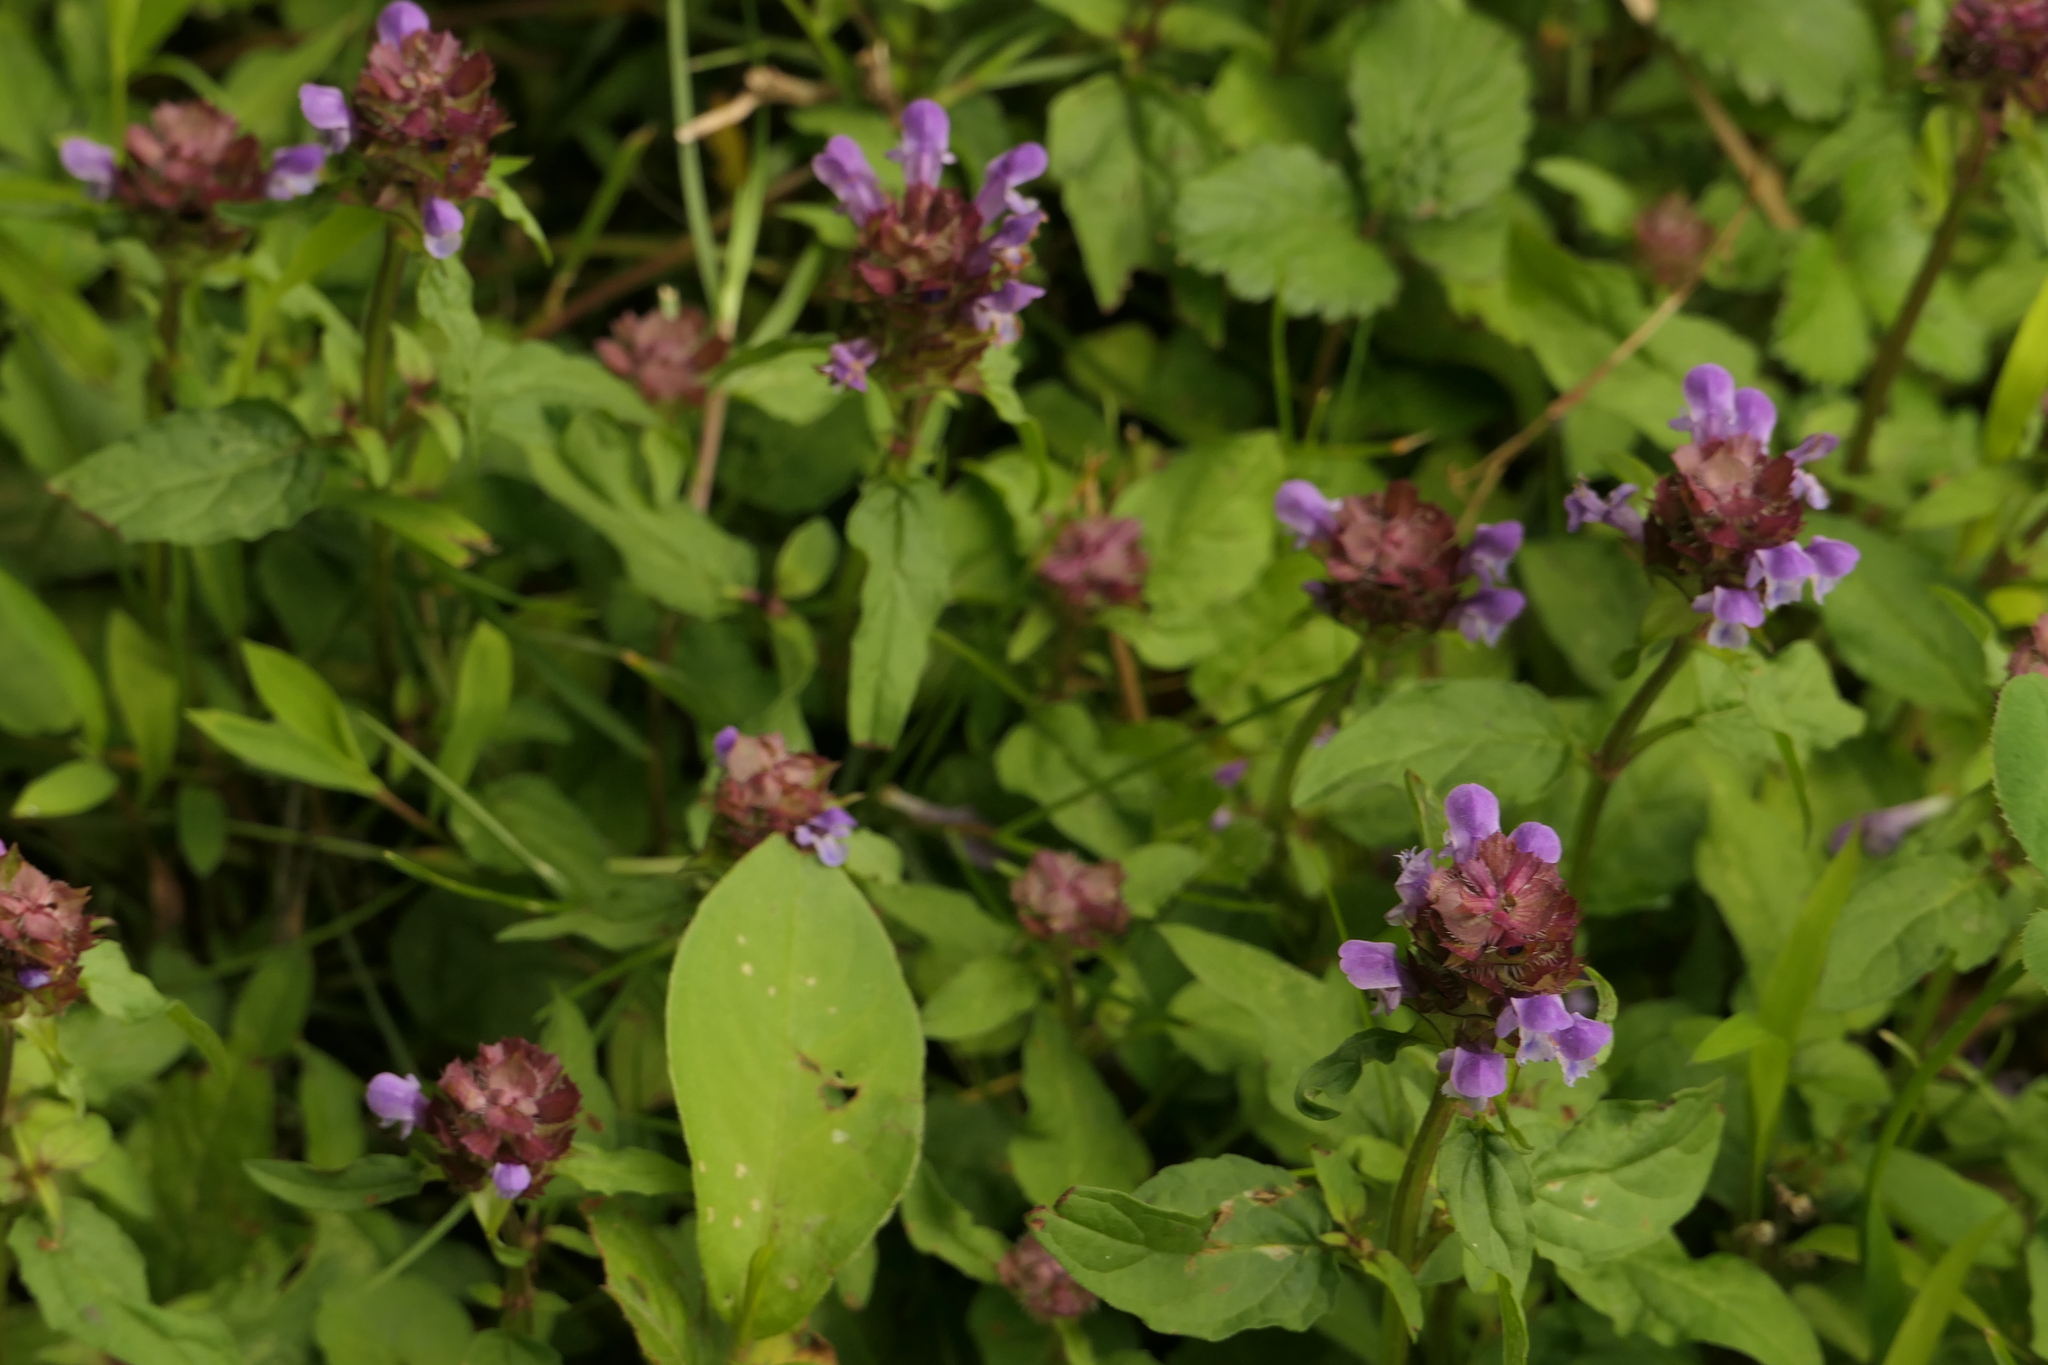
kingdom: Plantae
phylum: Tracheophyta
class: Magnoliopsida
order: Lamiales
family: Lamiaceae
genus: Prunella
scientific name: Prunella vulgaris
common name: Heal-all
